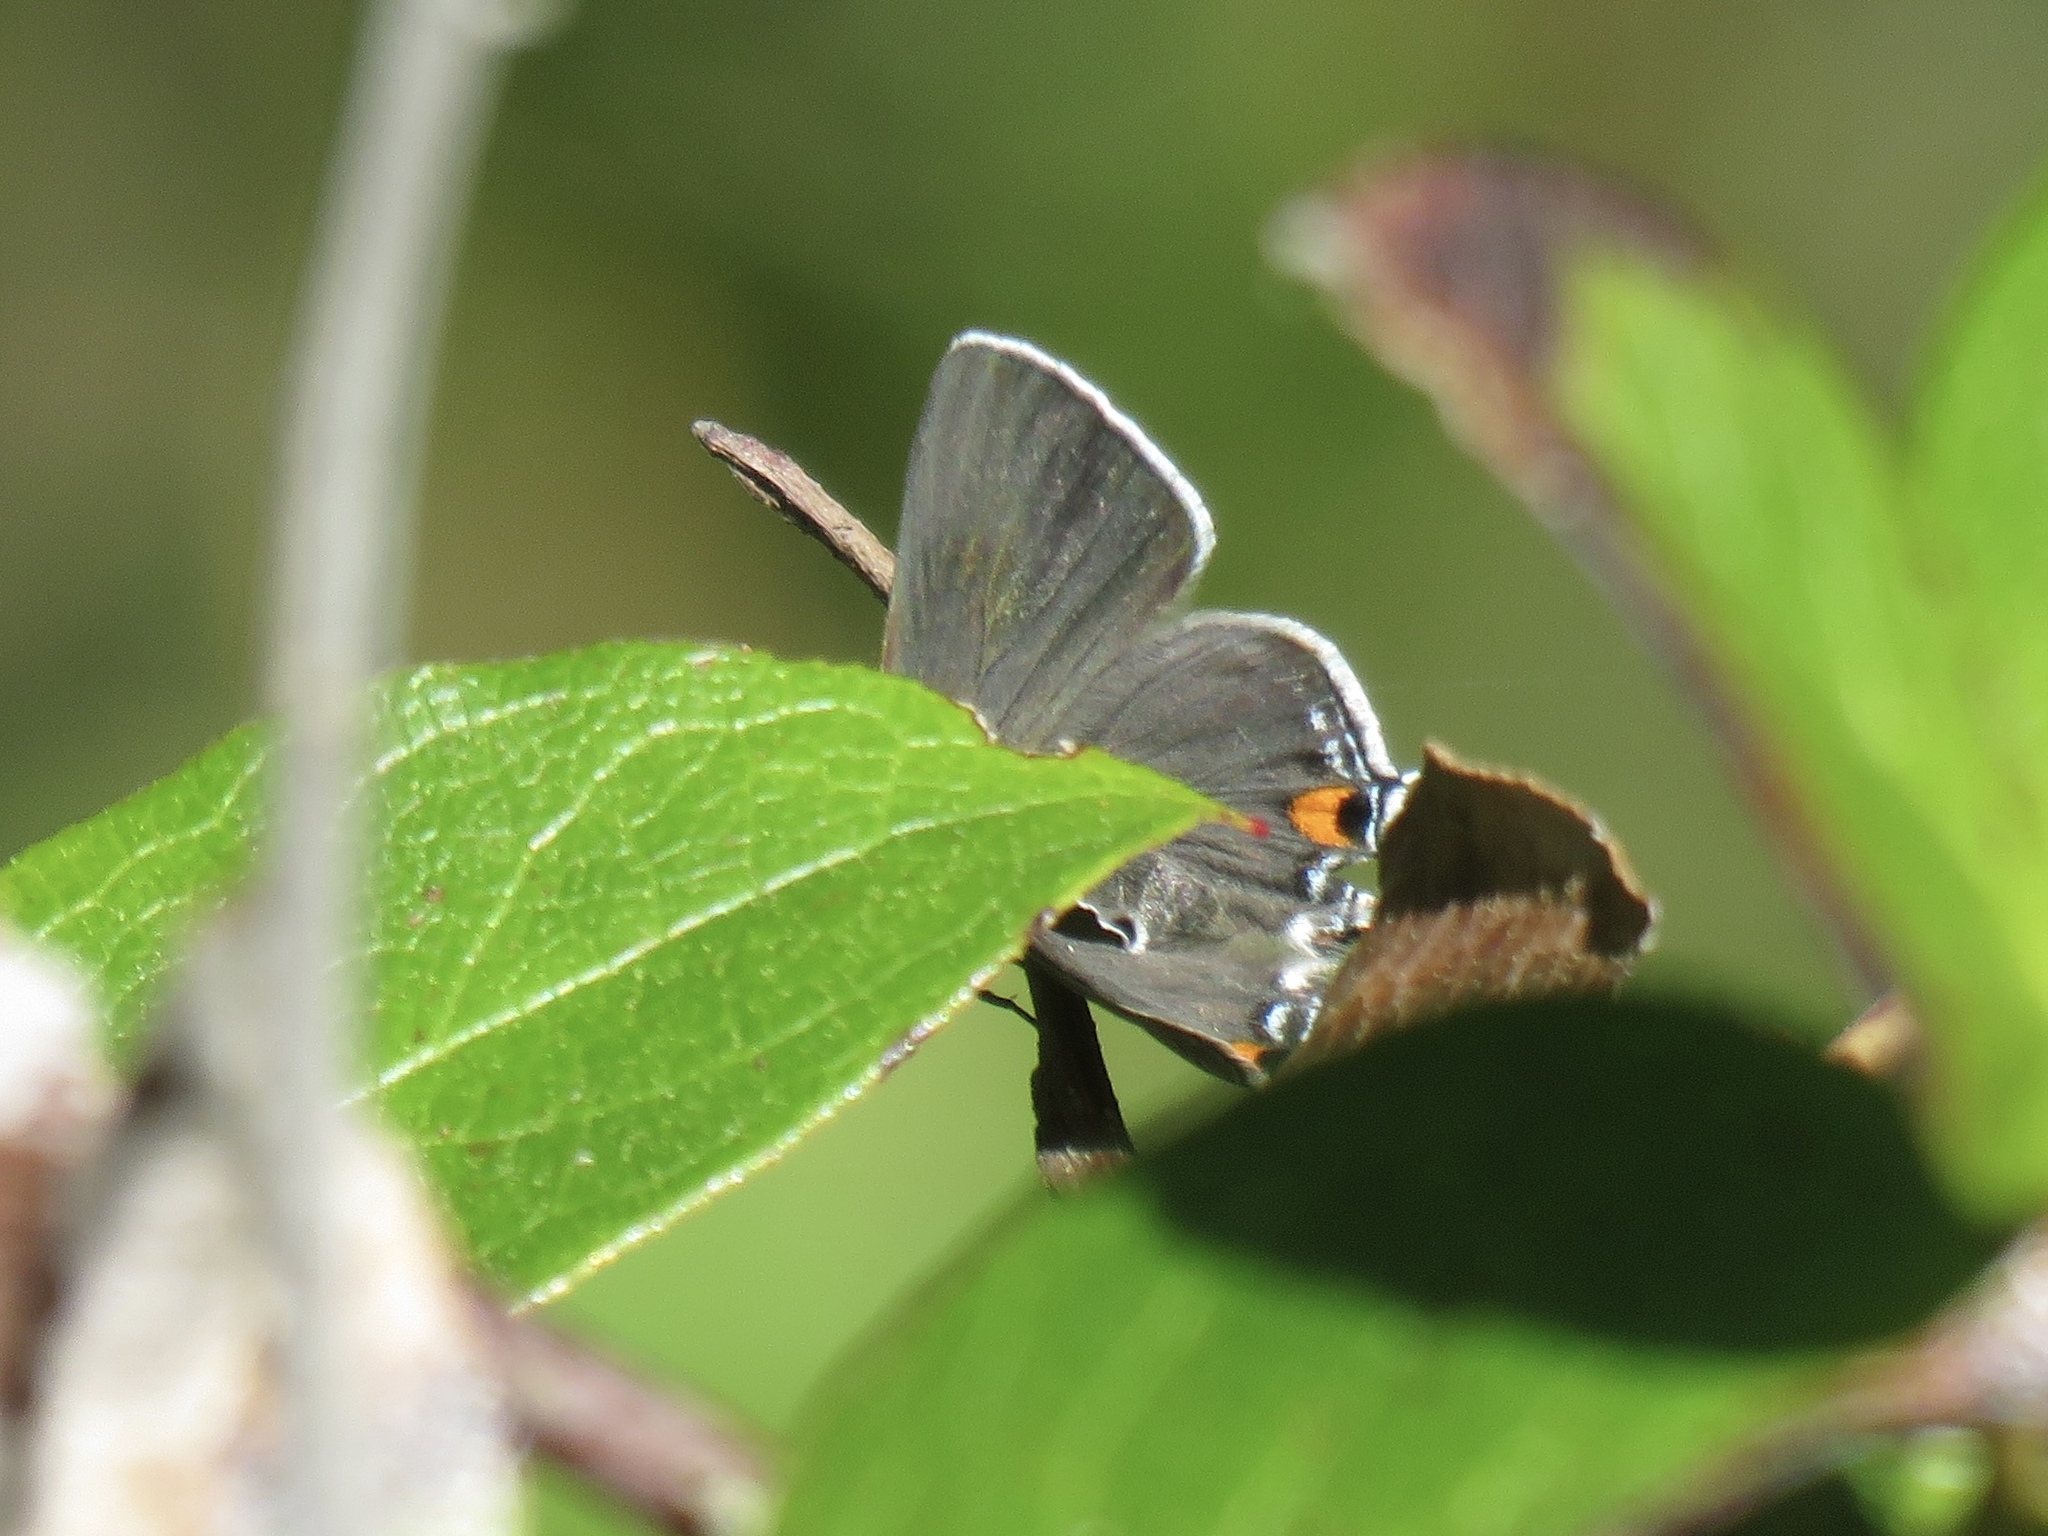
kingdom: Animalia
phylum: Arthropoda
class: Insecta
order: Lepidoptera
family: Lycaenidae
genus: Strymon
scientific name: Strymon melinus
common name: Gray hairstreak
